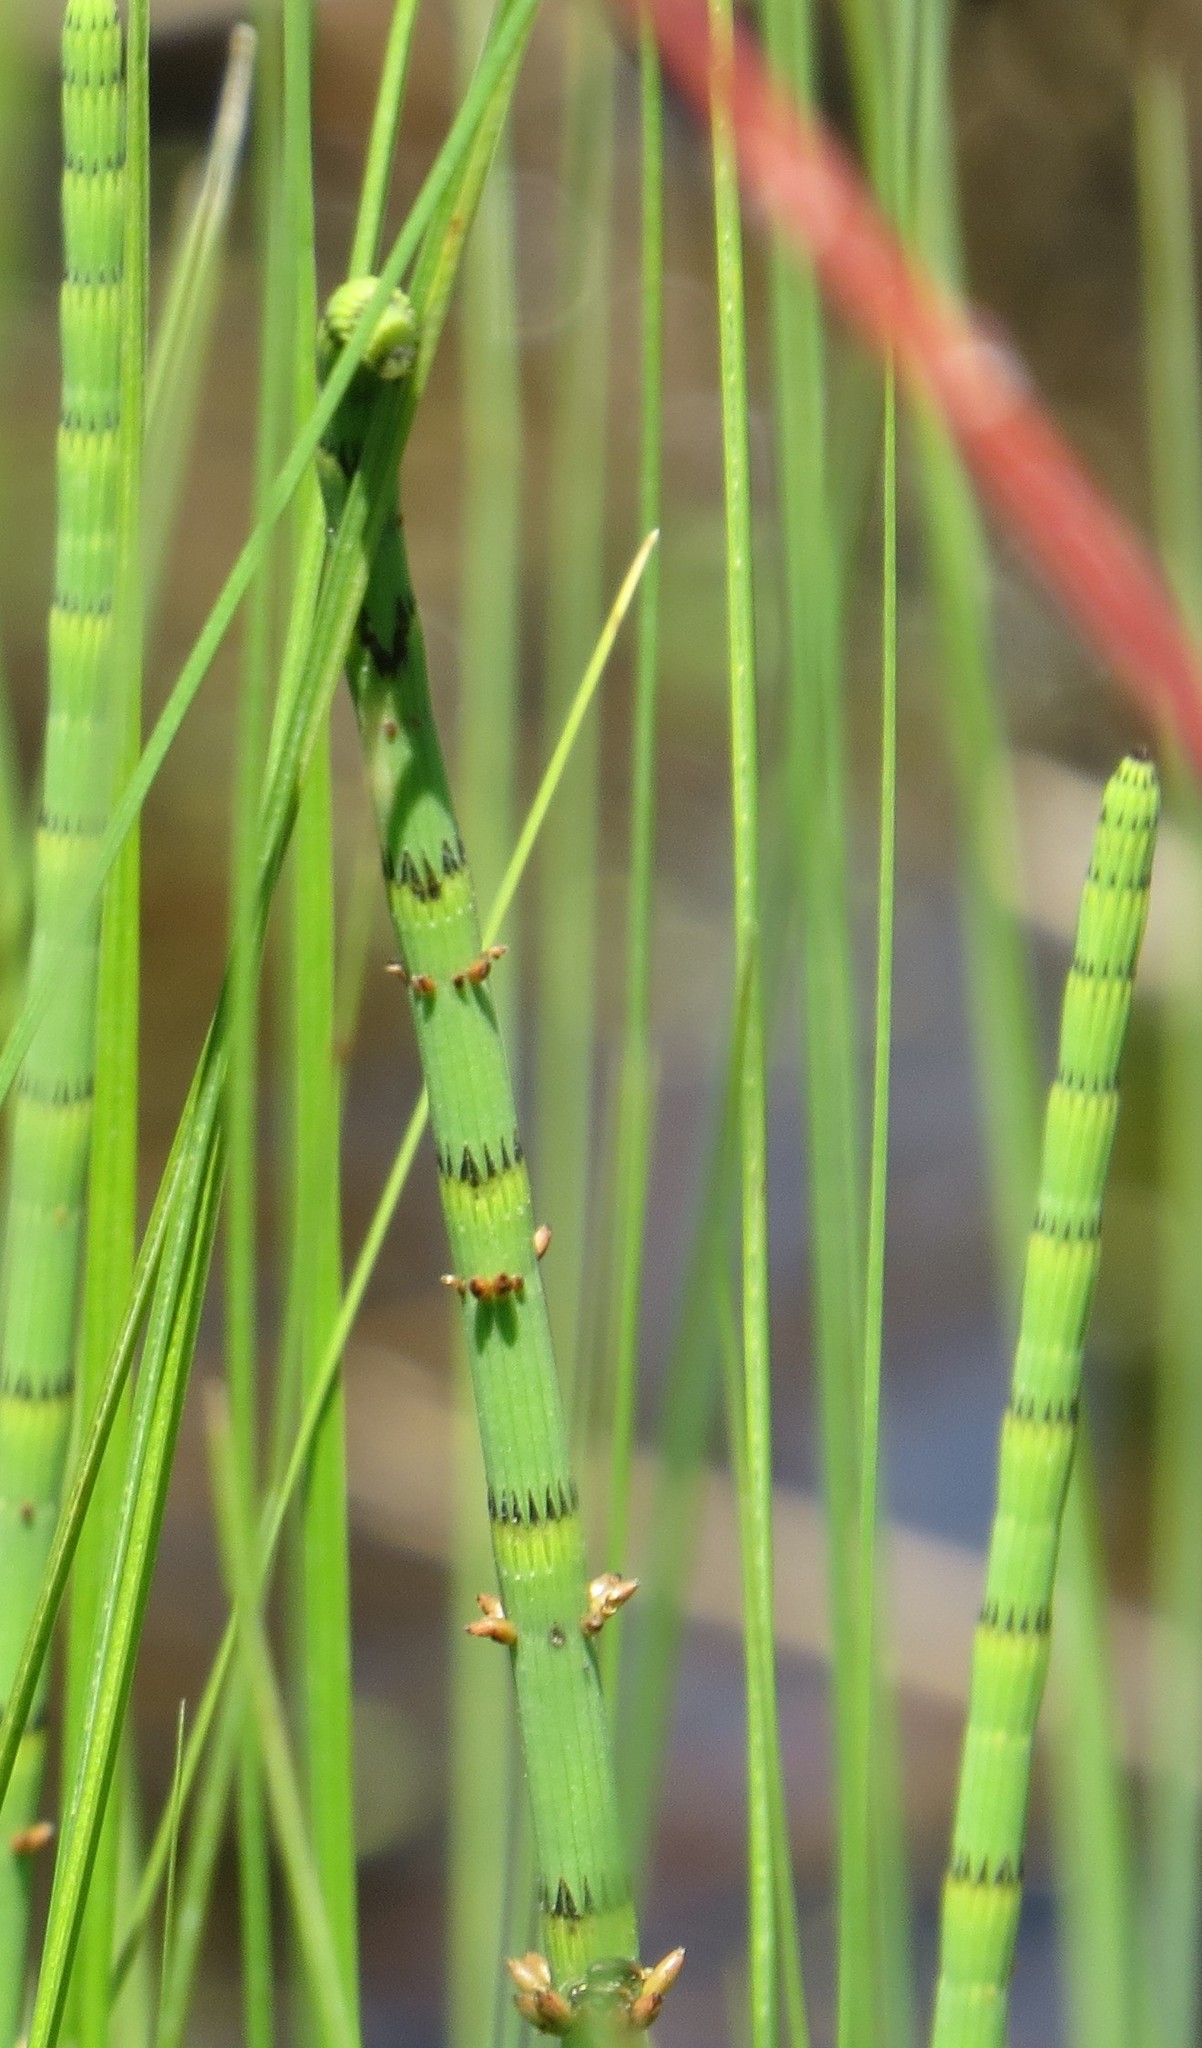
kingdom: Plantae
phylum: Tracheophyta
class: Polypodiopsida
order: Equisetales
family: Equisetaceae
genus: Equisetum
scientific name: Equisetum fluviatile
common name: Water horsetail
